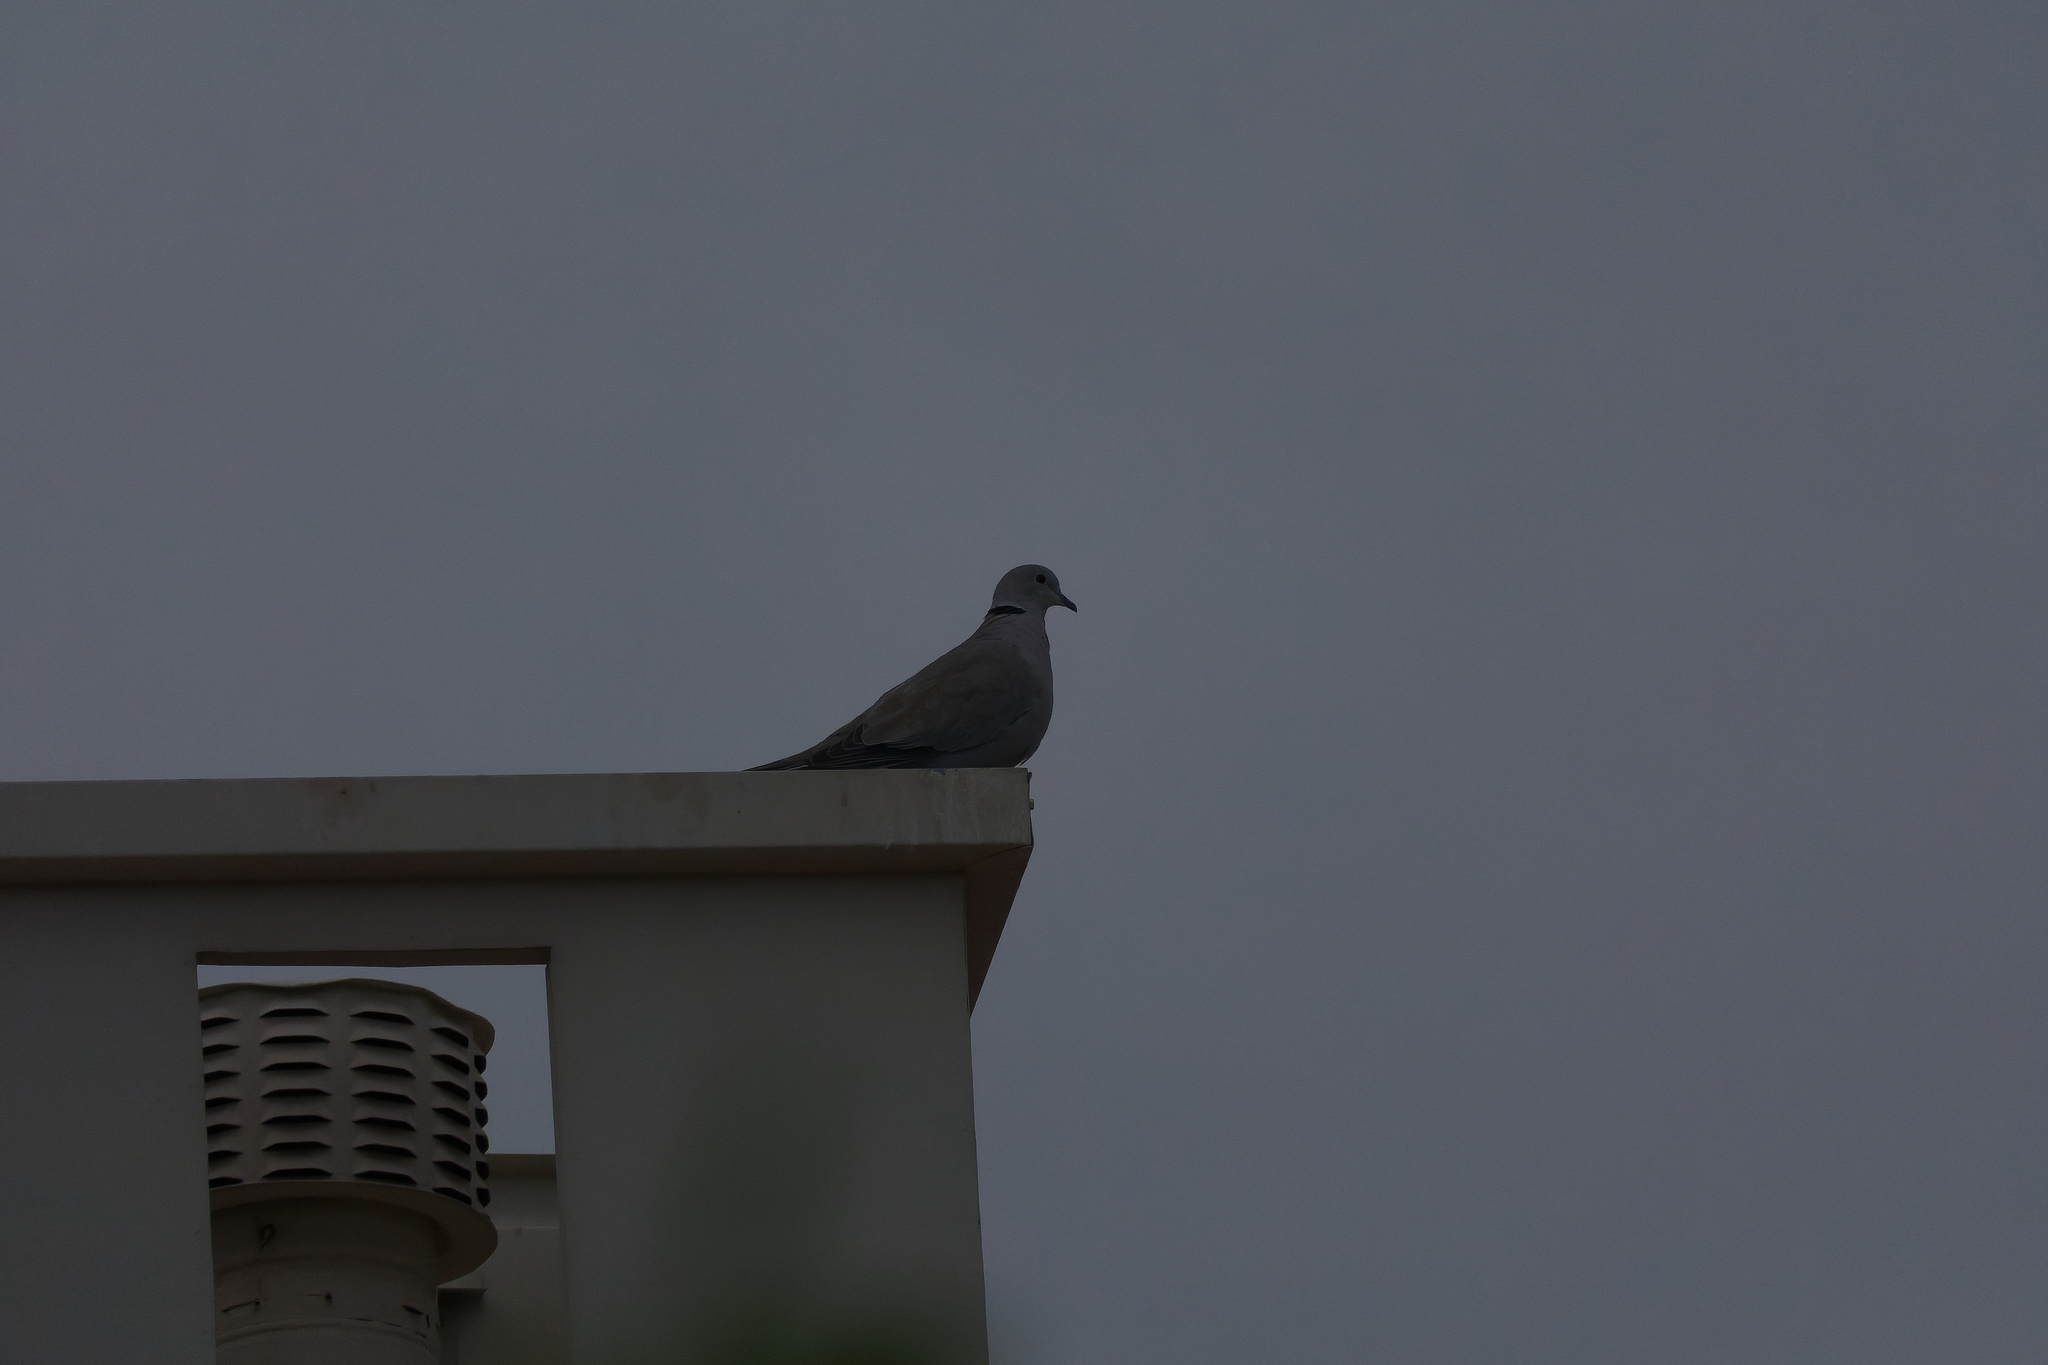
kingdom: Animalia
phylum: Chordata
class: Aves
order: Columbiformes
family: Columbidae
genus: Streptopelia
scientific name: Streptopelia decaocto
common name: Eurasian collared dove
